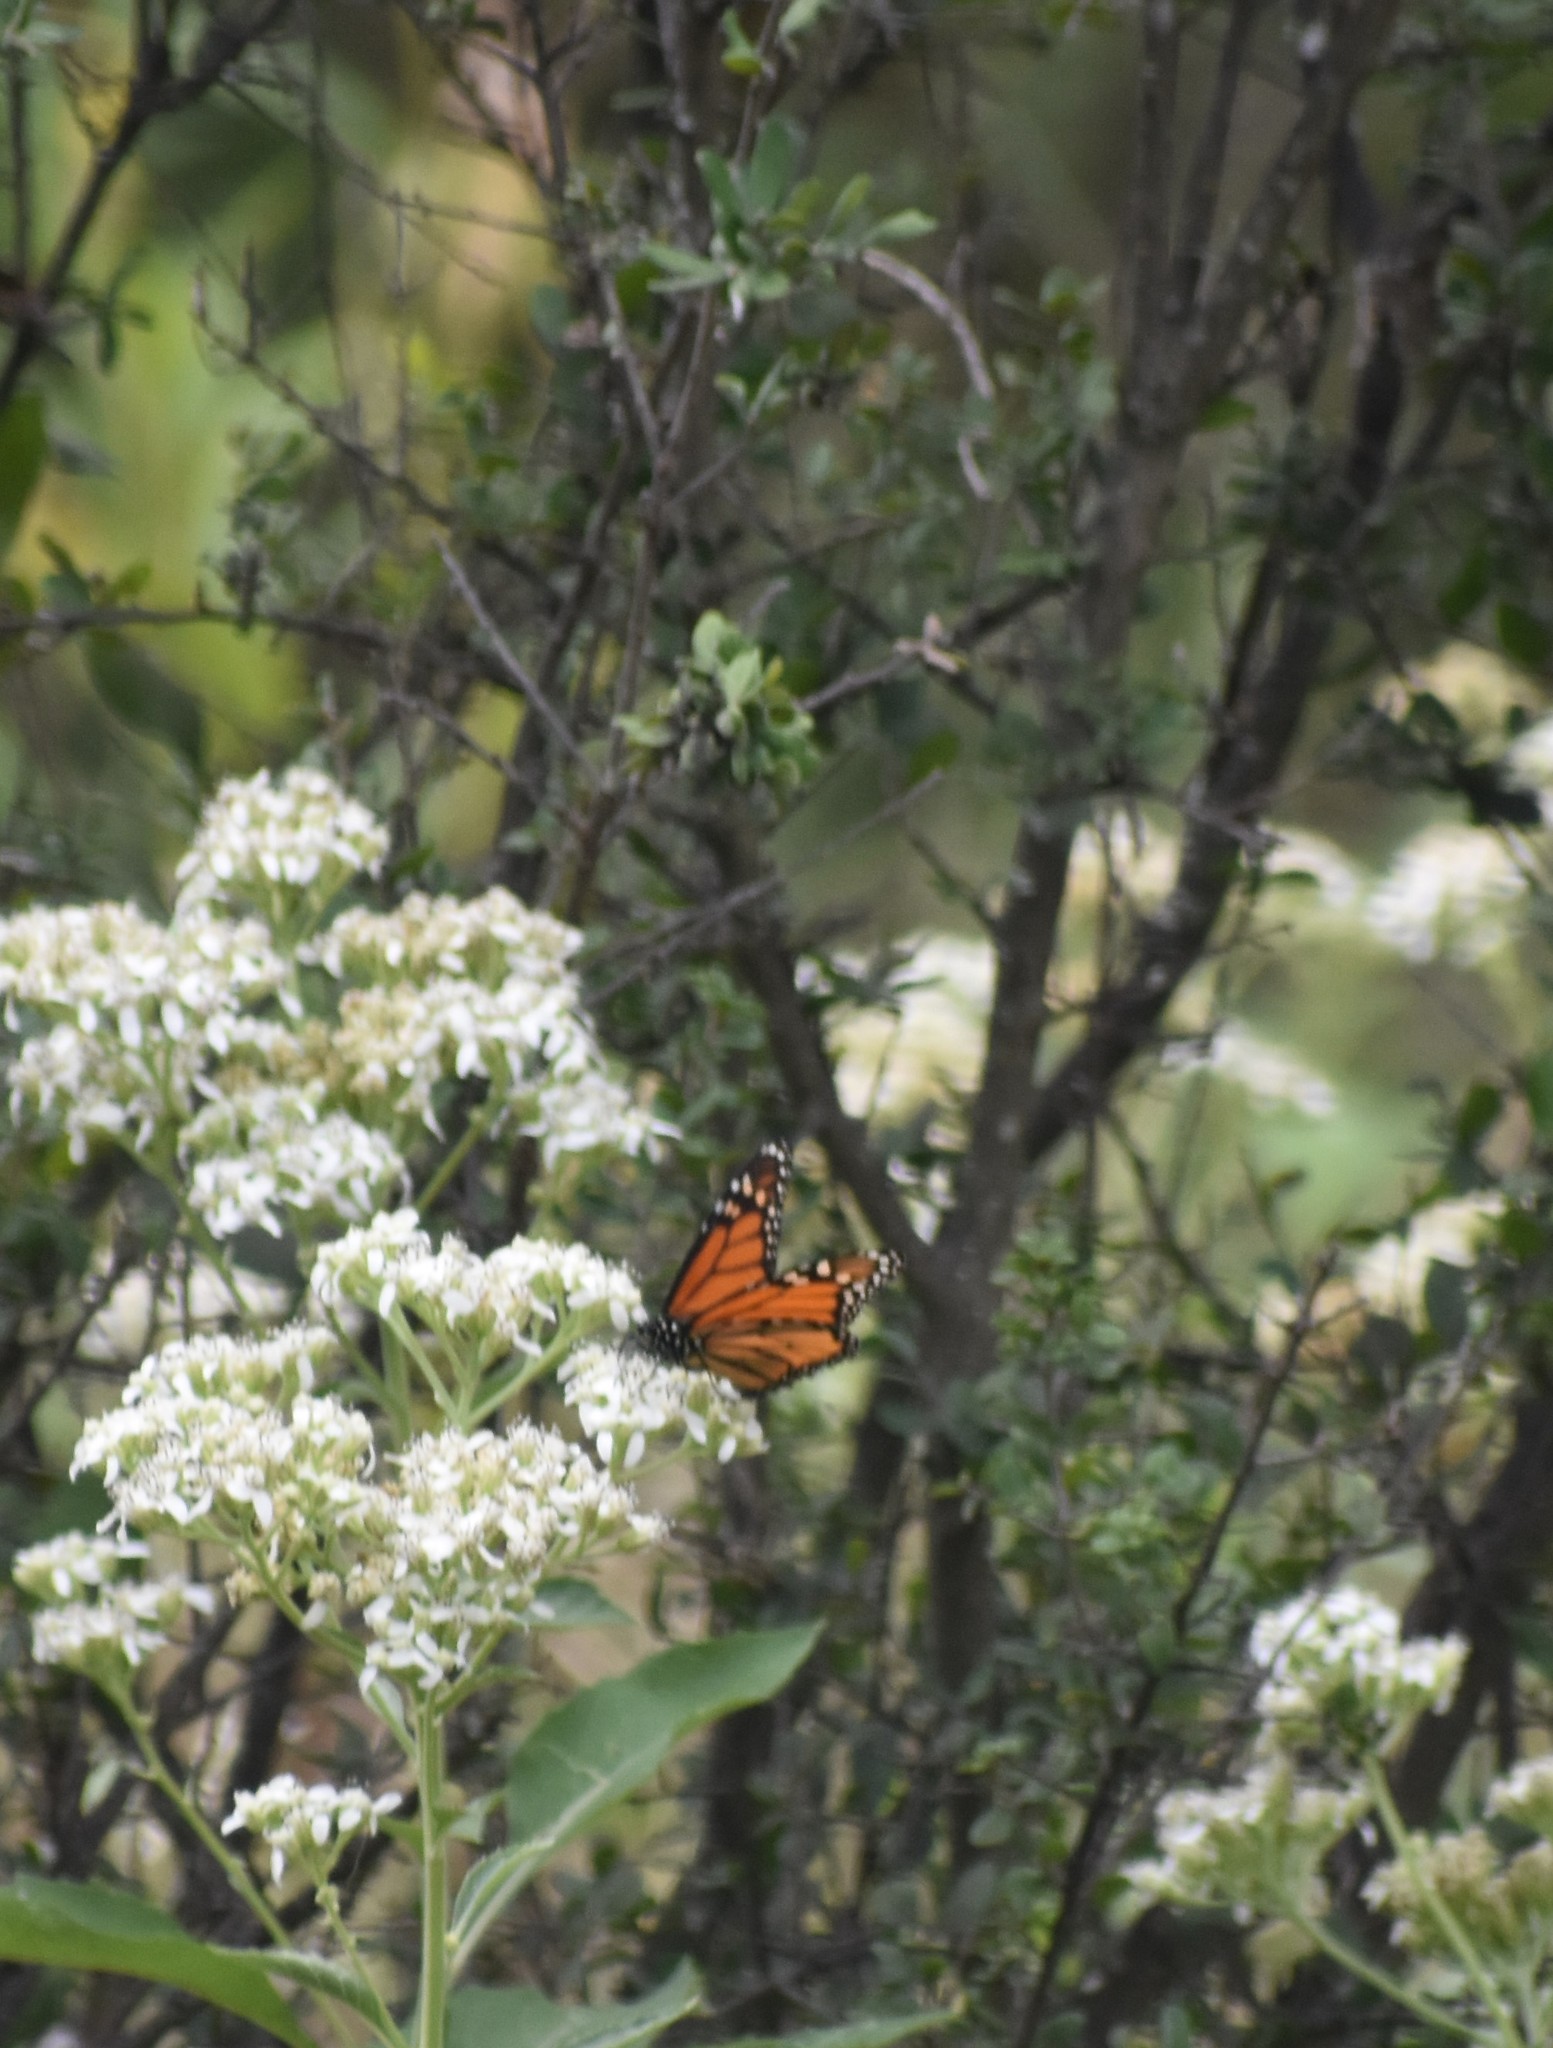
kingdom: Animalia
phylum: Arthropoda
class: Insecta
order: Lepidoptera
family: Nymphalidae
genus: Danaus
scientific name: Danaus plexippus
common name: Monarch
